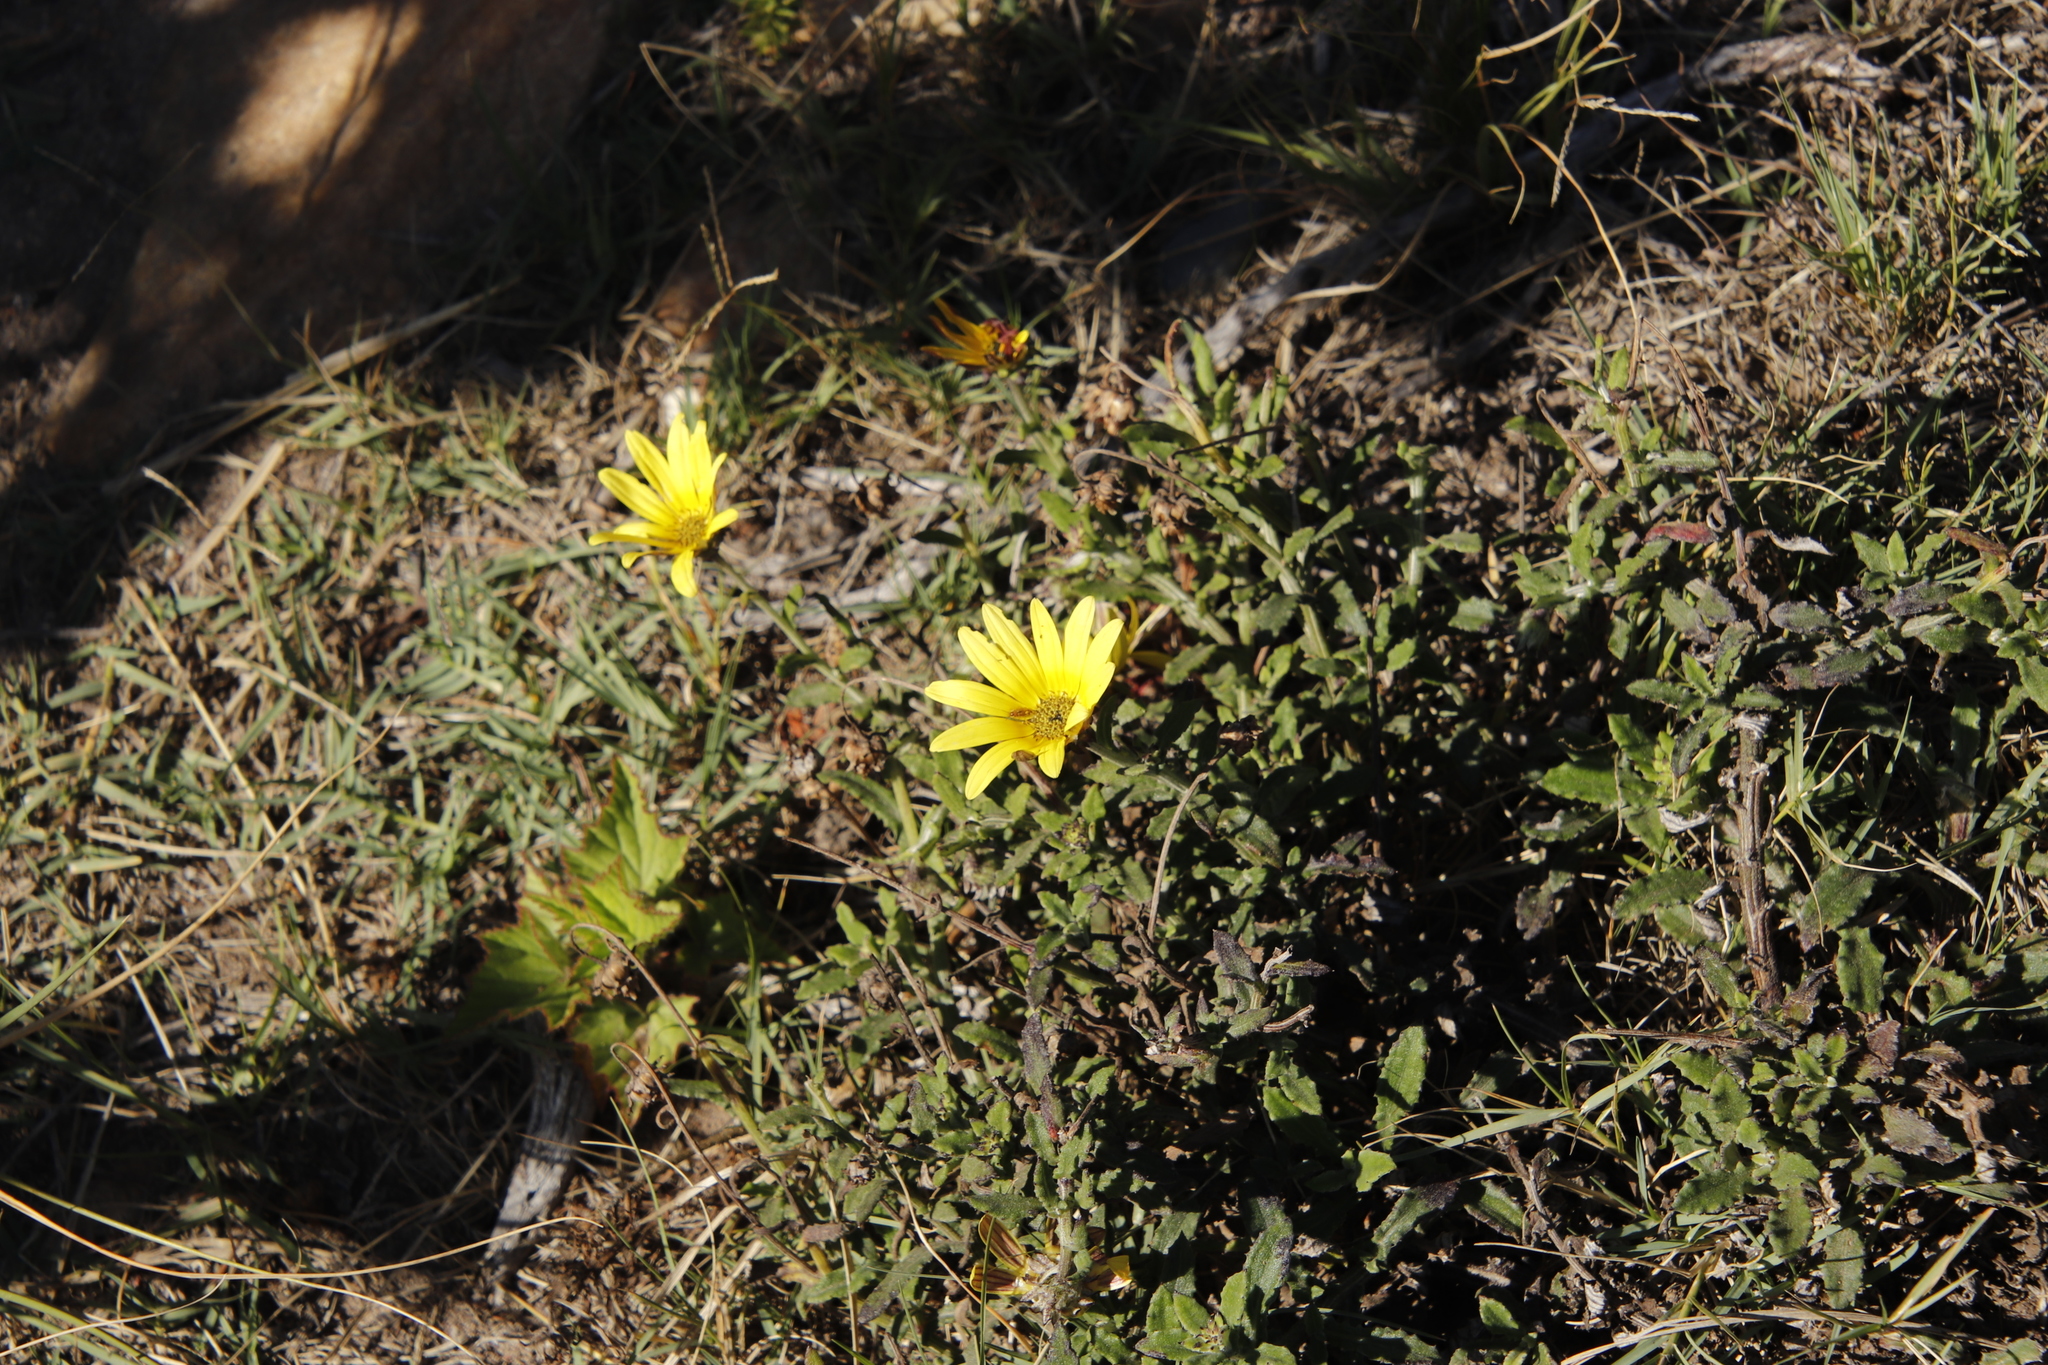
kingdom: Plantae
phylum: Tracheophyta
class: Magnoliopsida
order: Asterales
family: Asteraceae
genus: Arctotis
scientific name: Arctotis scabra
